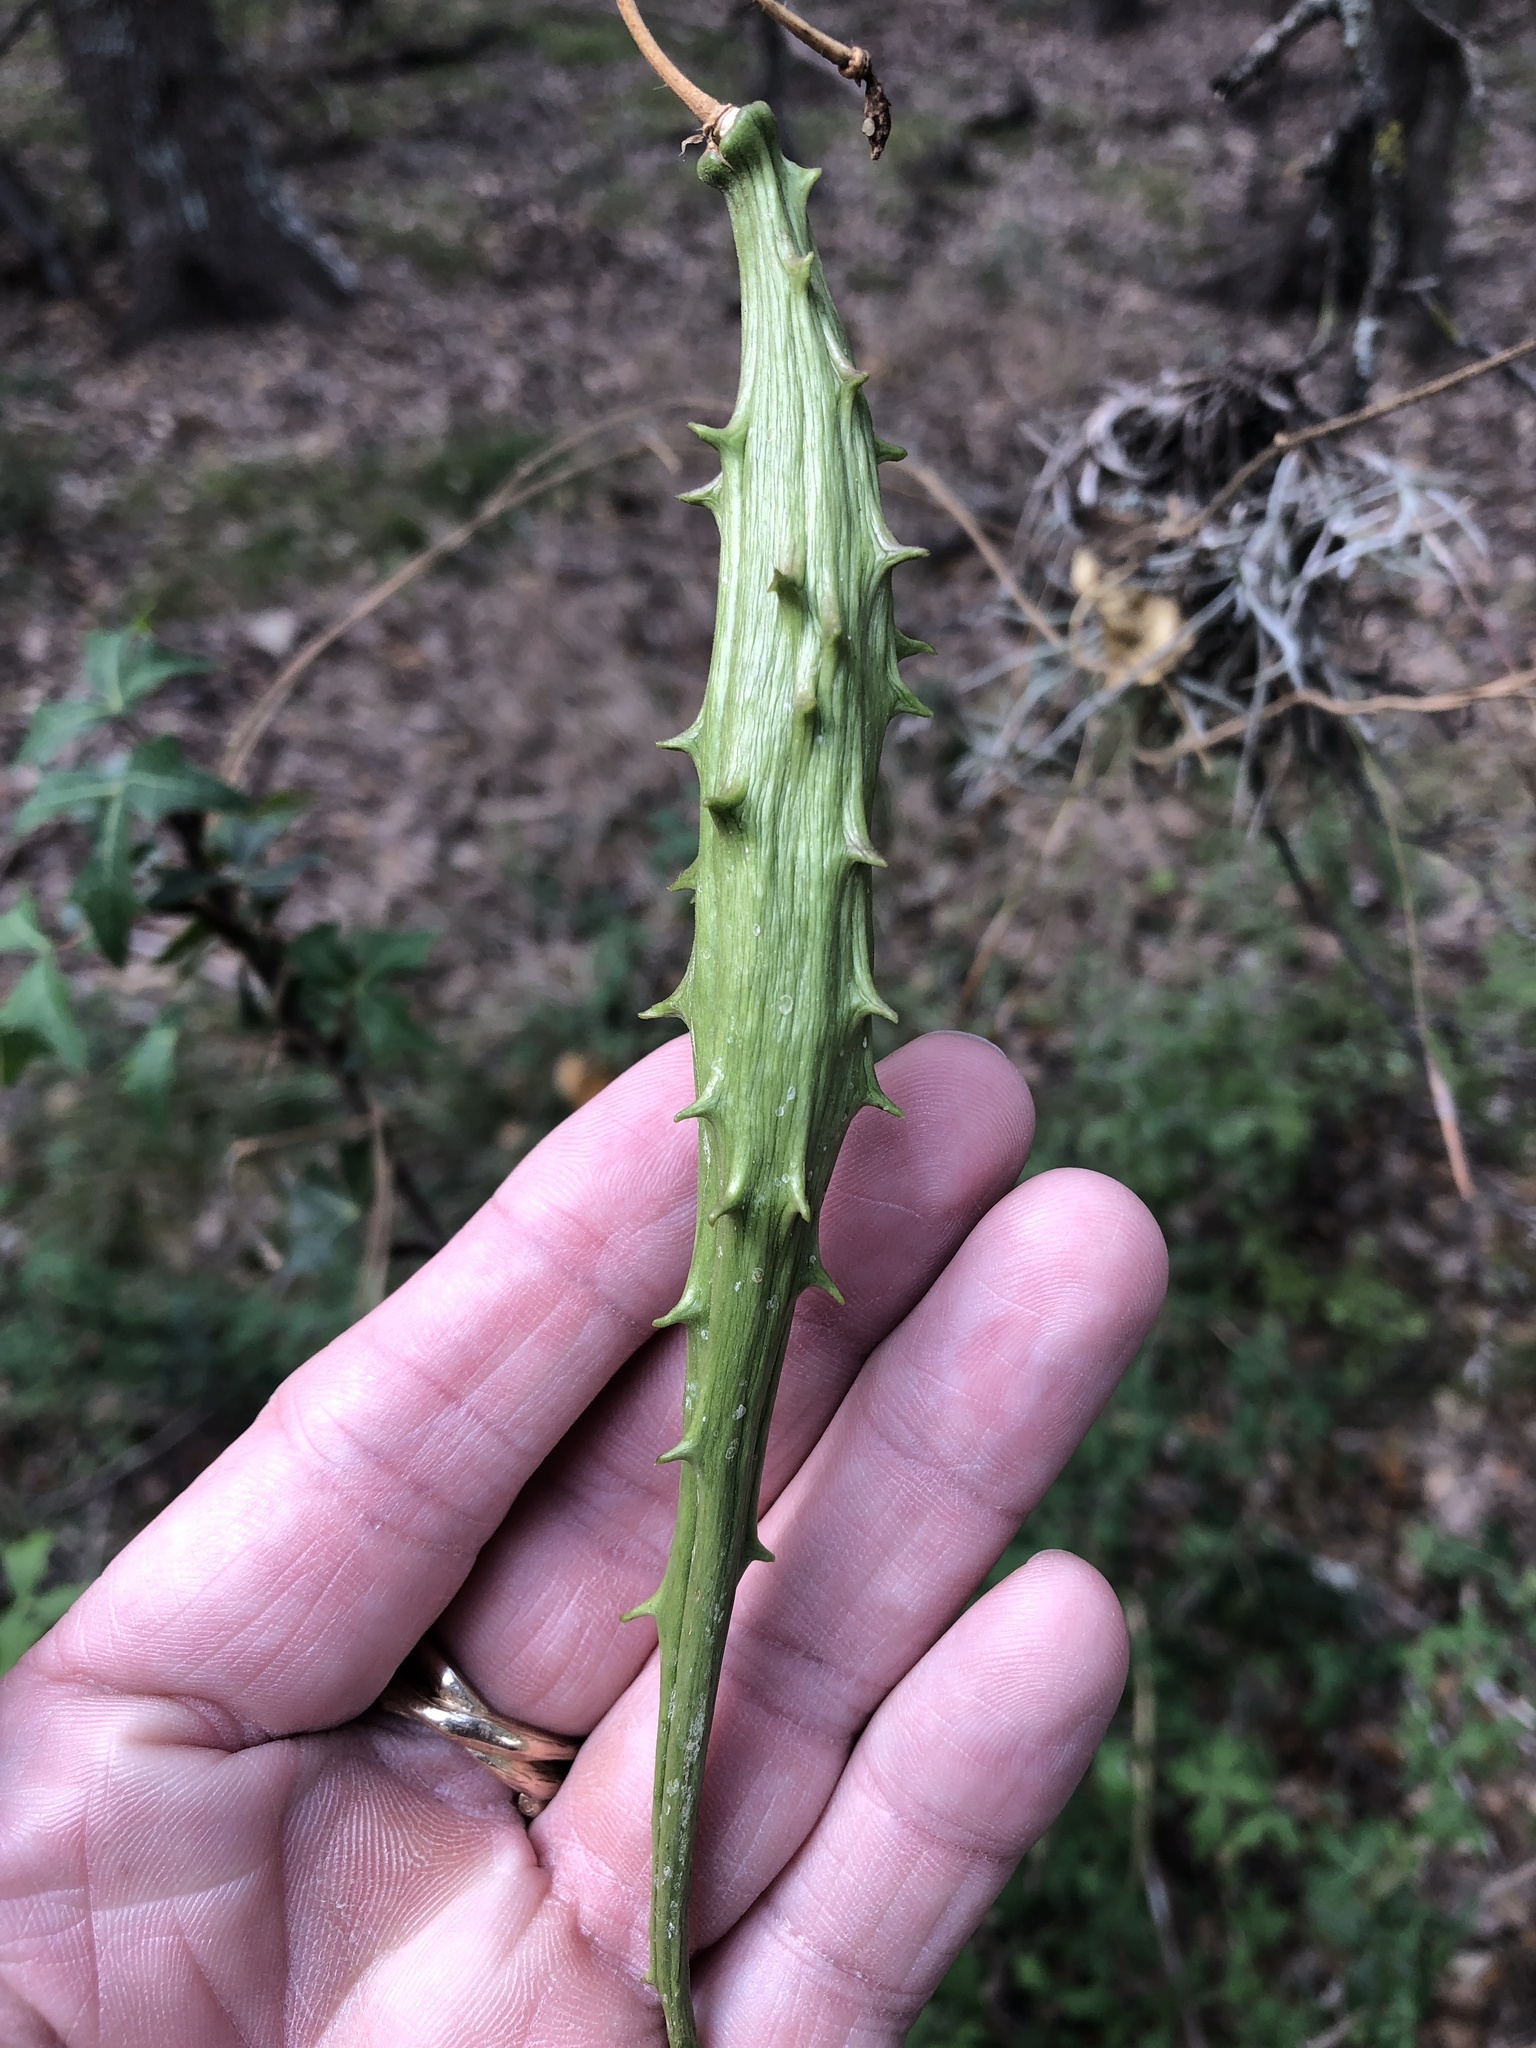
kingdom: Plantae
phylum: Tracheophyta
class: Magnoliopsida
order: Gentianales
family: Apocynaceae
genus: Dictyanthus
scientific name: Dictyanthus reticulatus
